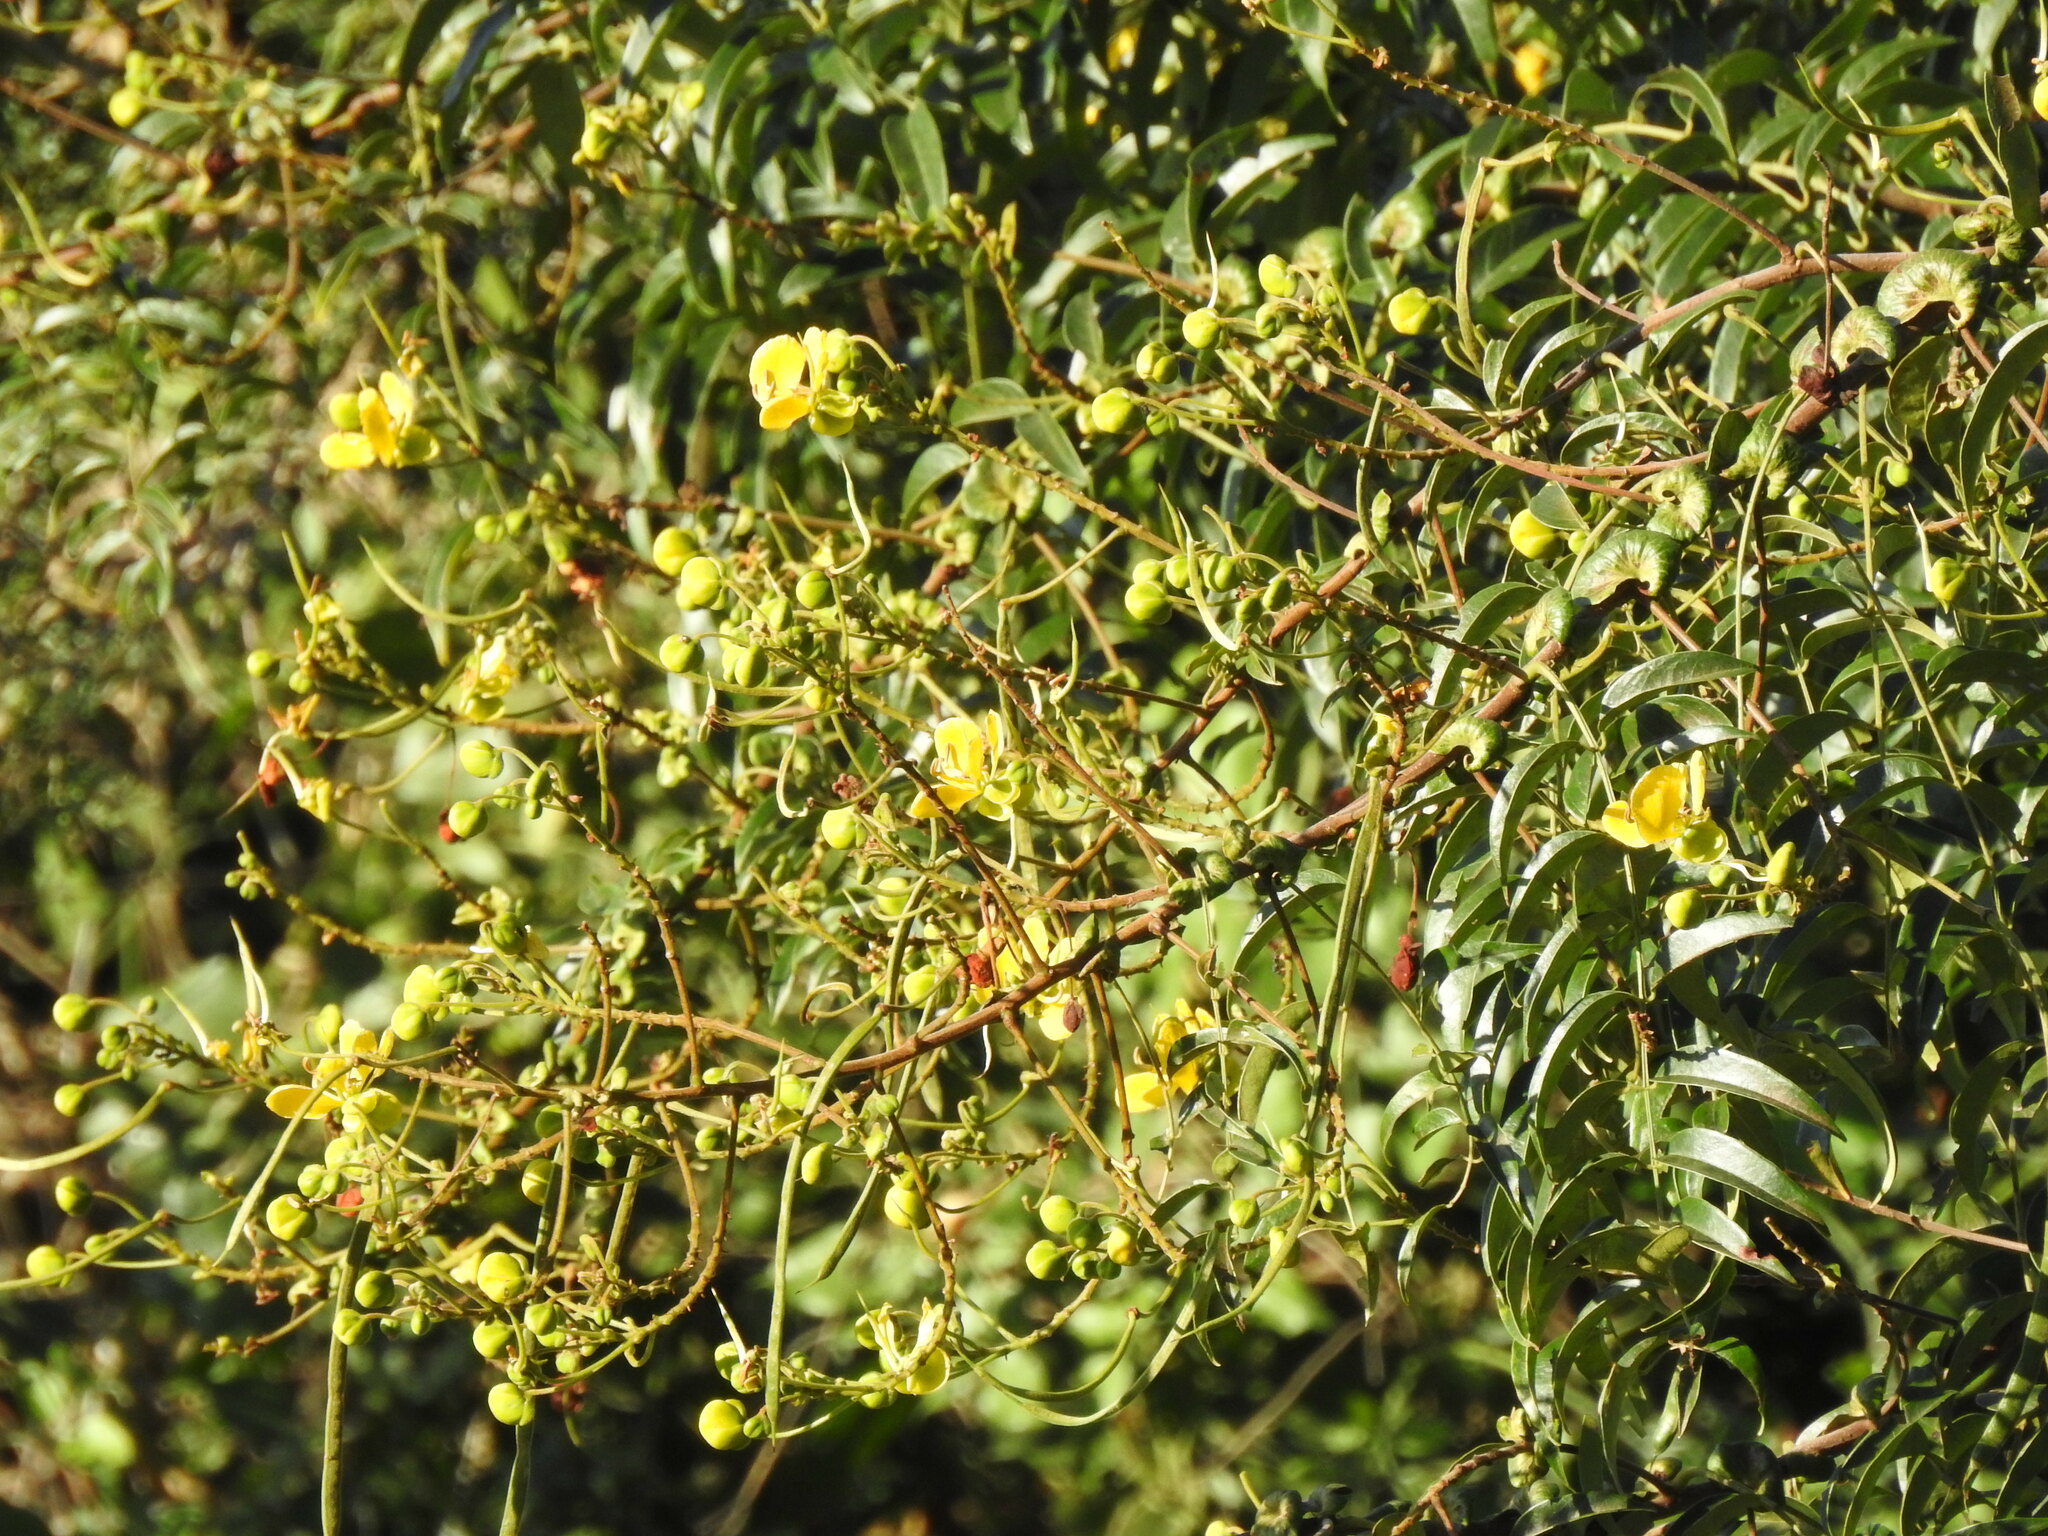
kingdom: Plantae
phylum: Tracheophyta
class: Magnoliopsida
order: Fabales
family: Fabaceae
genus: Senna
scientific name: Senna petersiana
